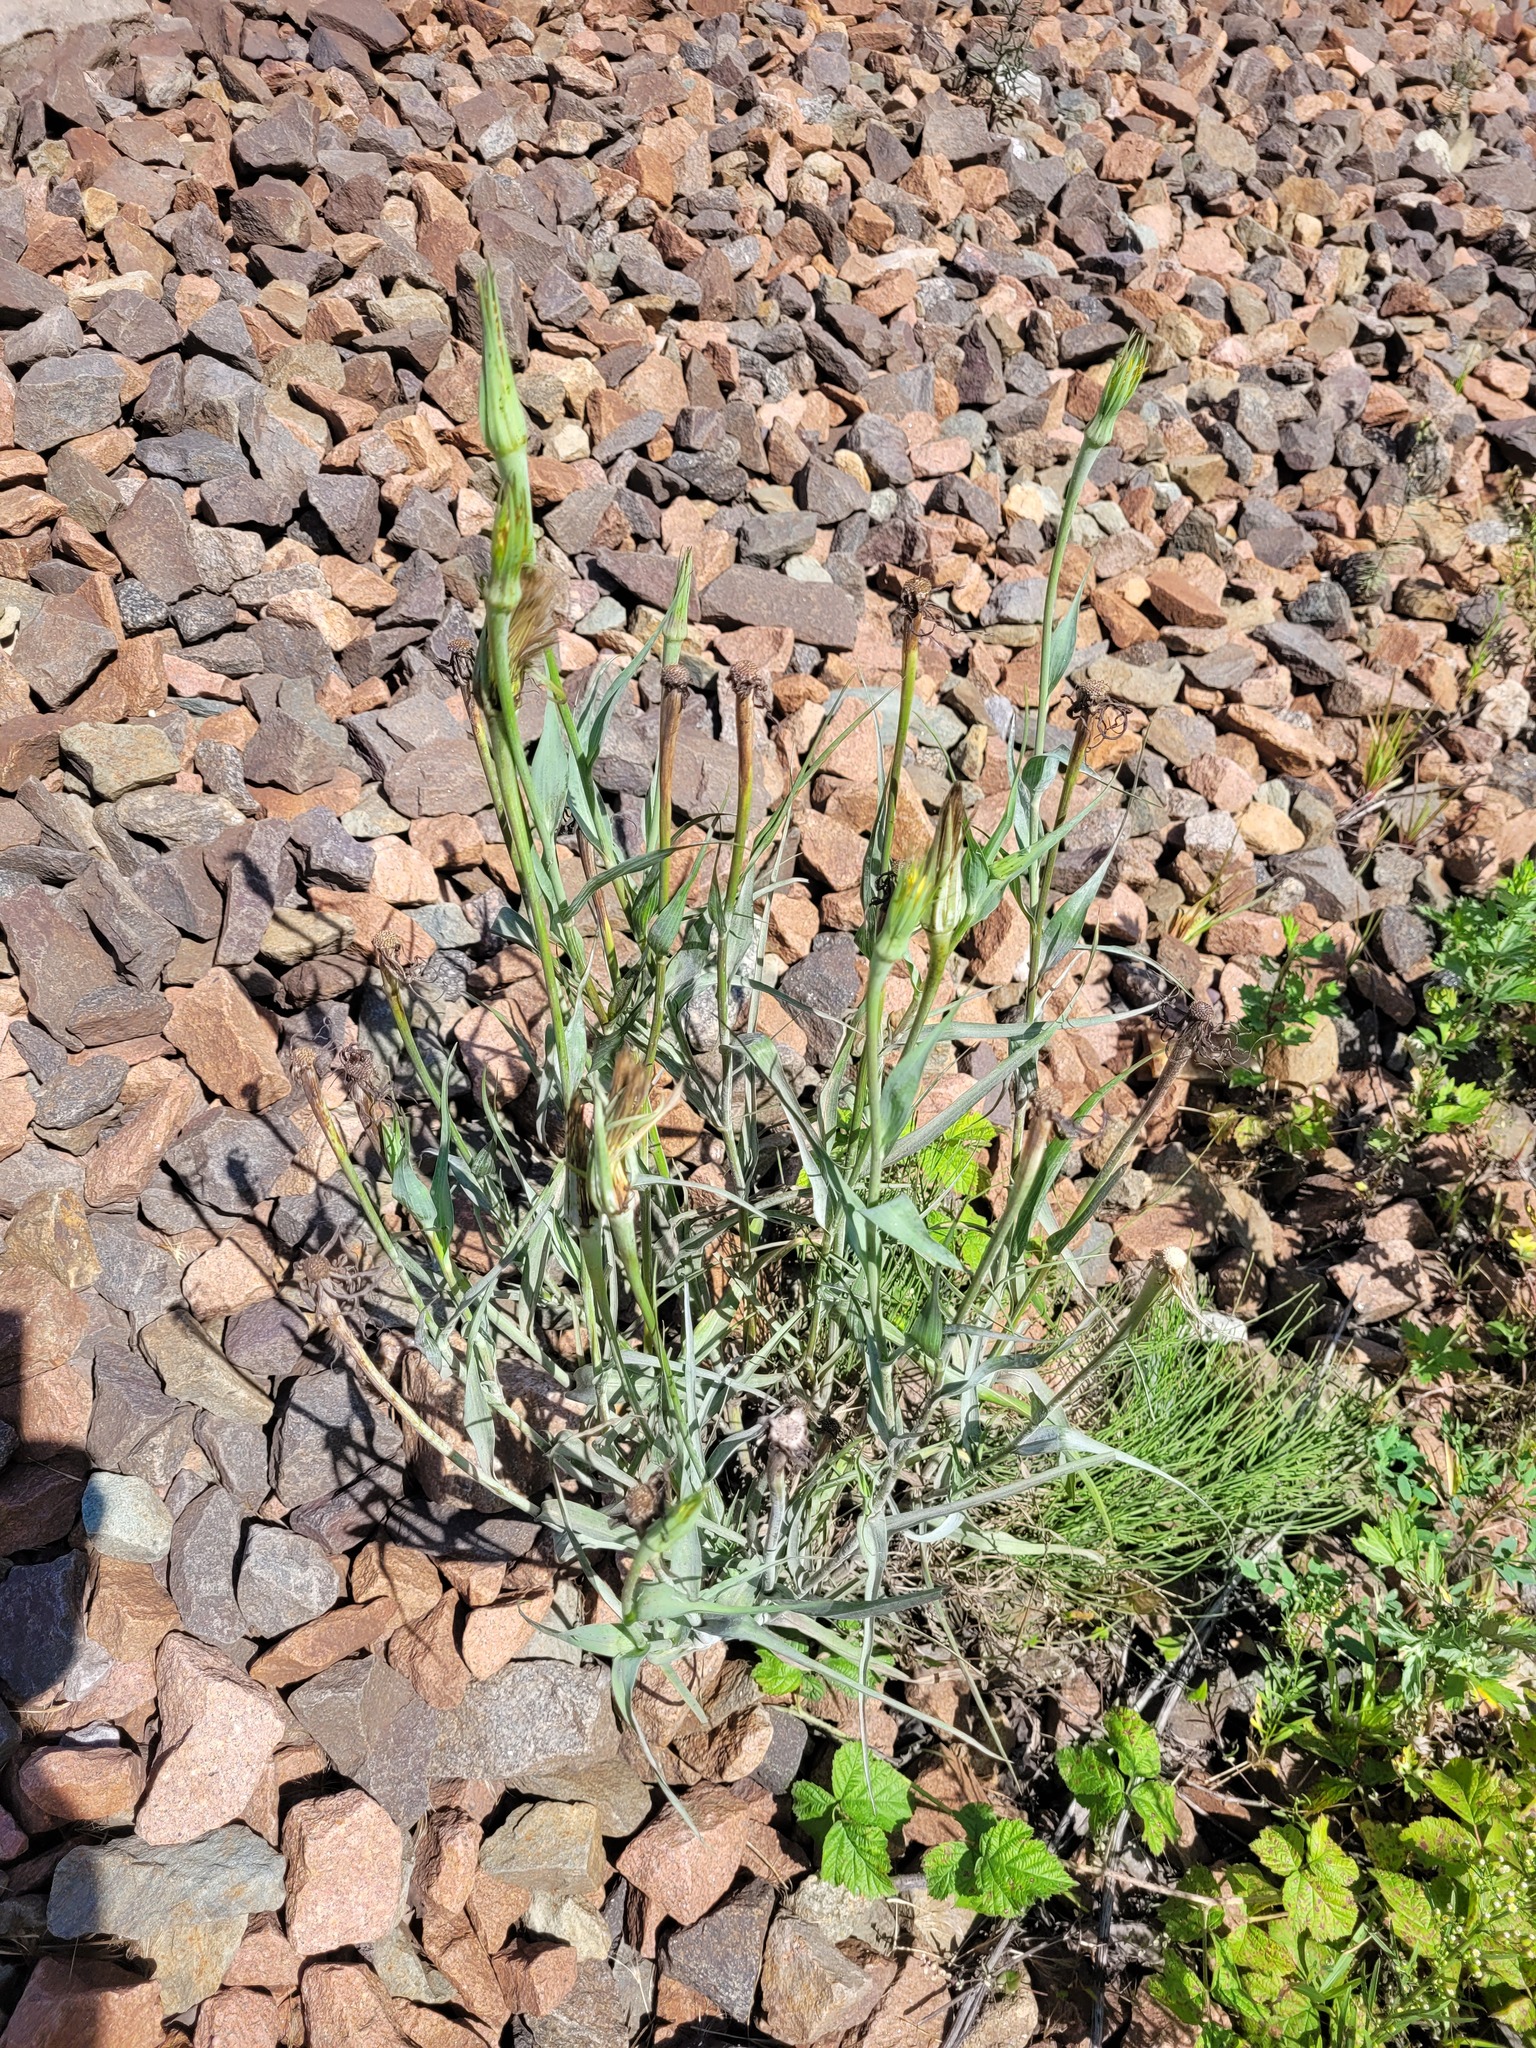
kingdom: Plantae
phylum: Tracheophyta
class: Magnoliopsida
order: Asterales
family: Asteraceae
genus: Tragopogon
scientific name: Tragopogon dubius
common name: Yellow salsify
